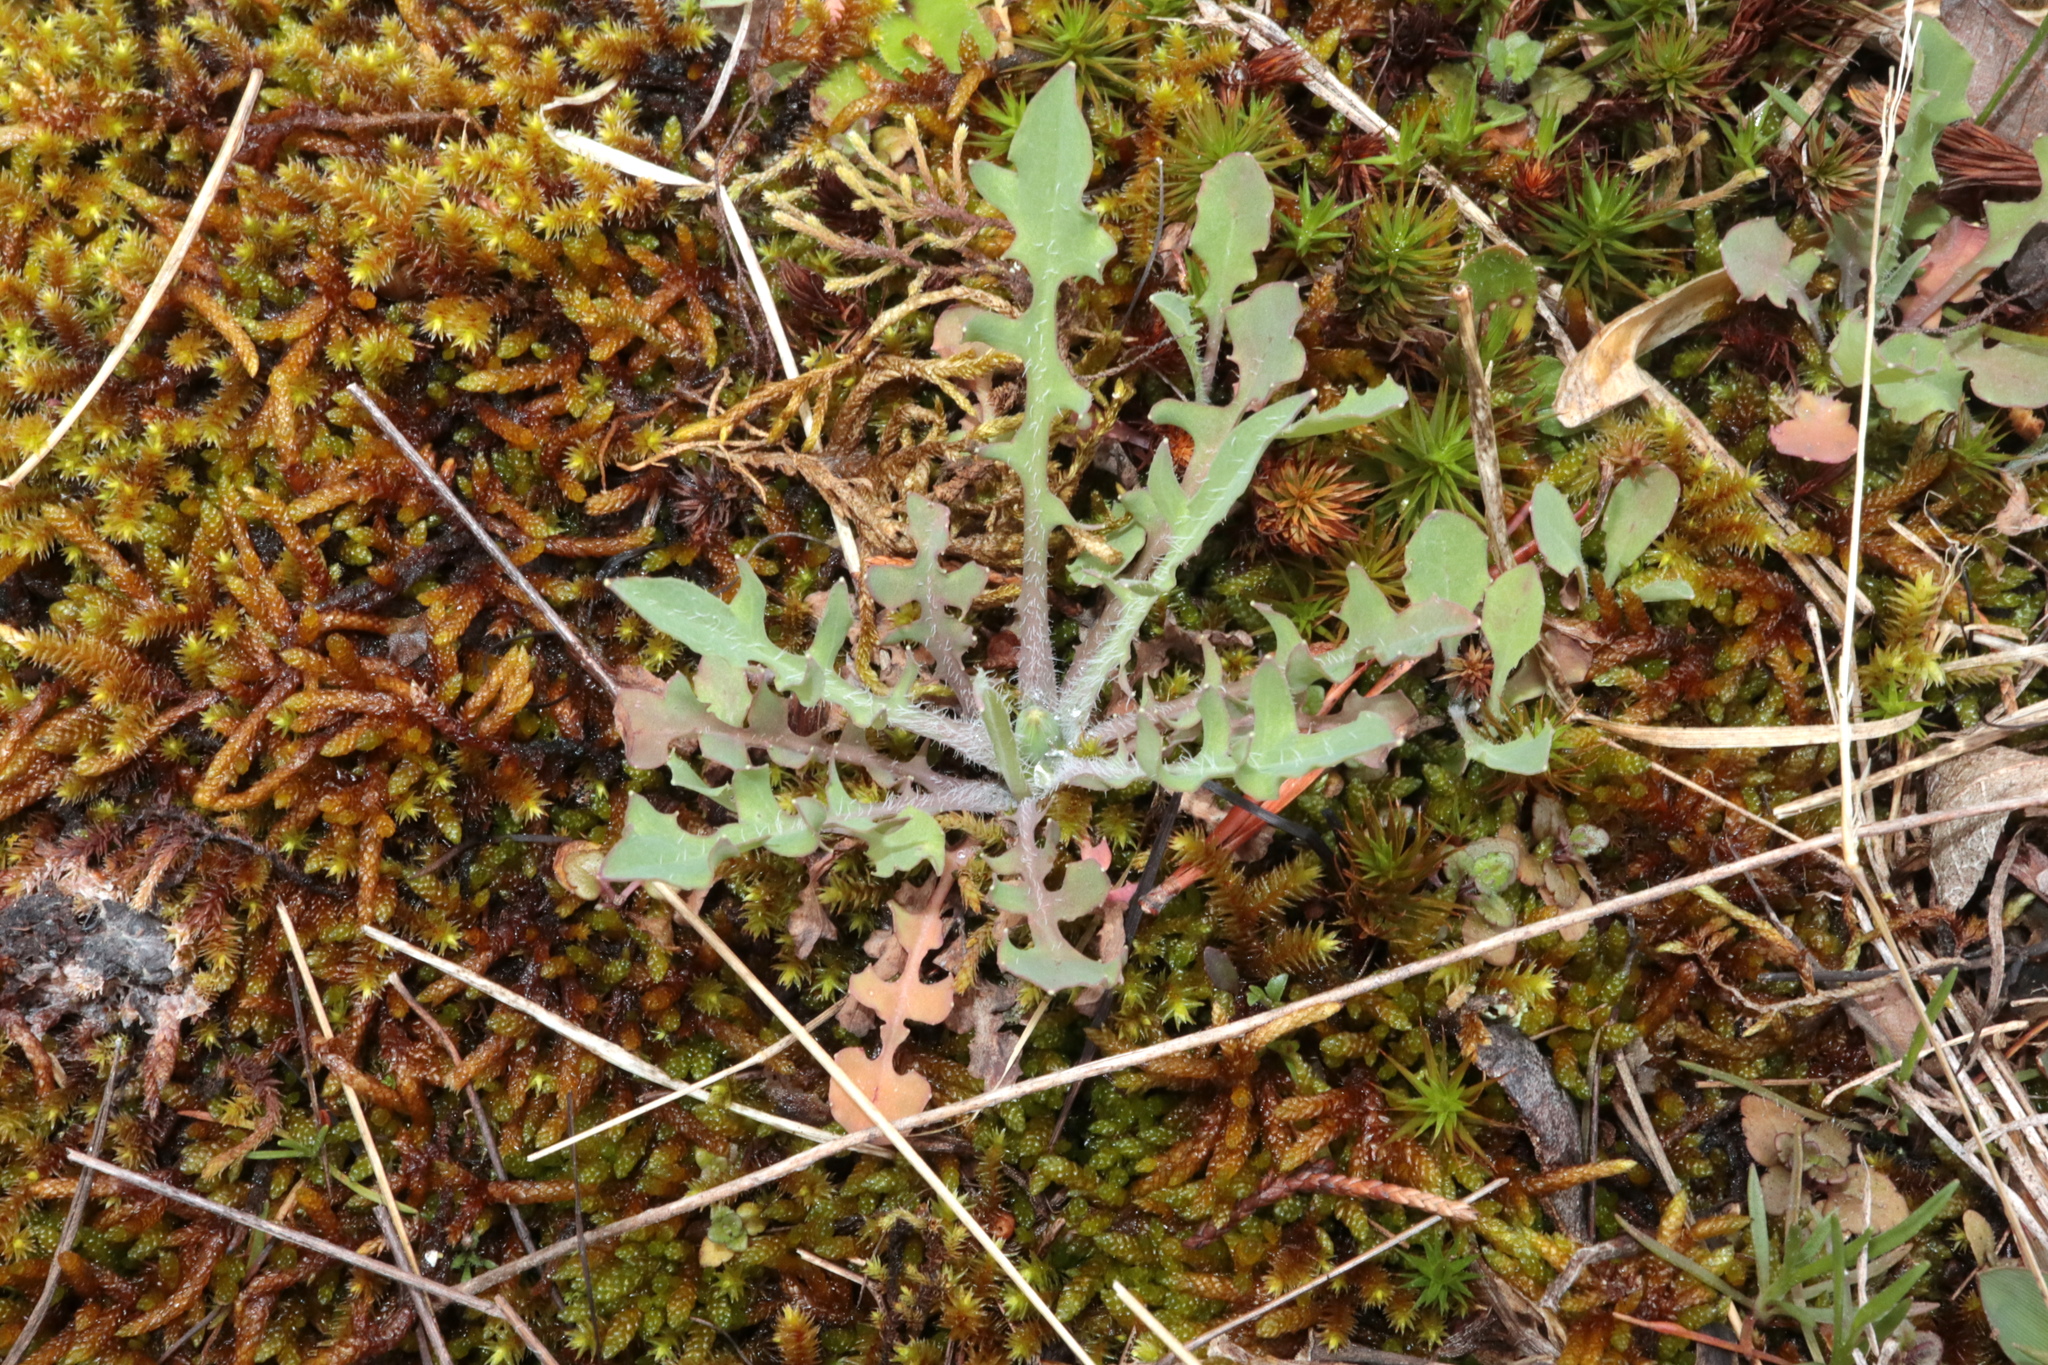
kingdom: Plantae
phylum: Tracheophyta
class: Magnoliopsida
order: Asterales
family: Asteraceae
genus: Krigia
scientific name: Krigia virginica
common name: Virginia dwarf-dandelion
